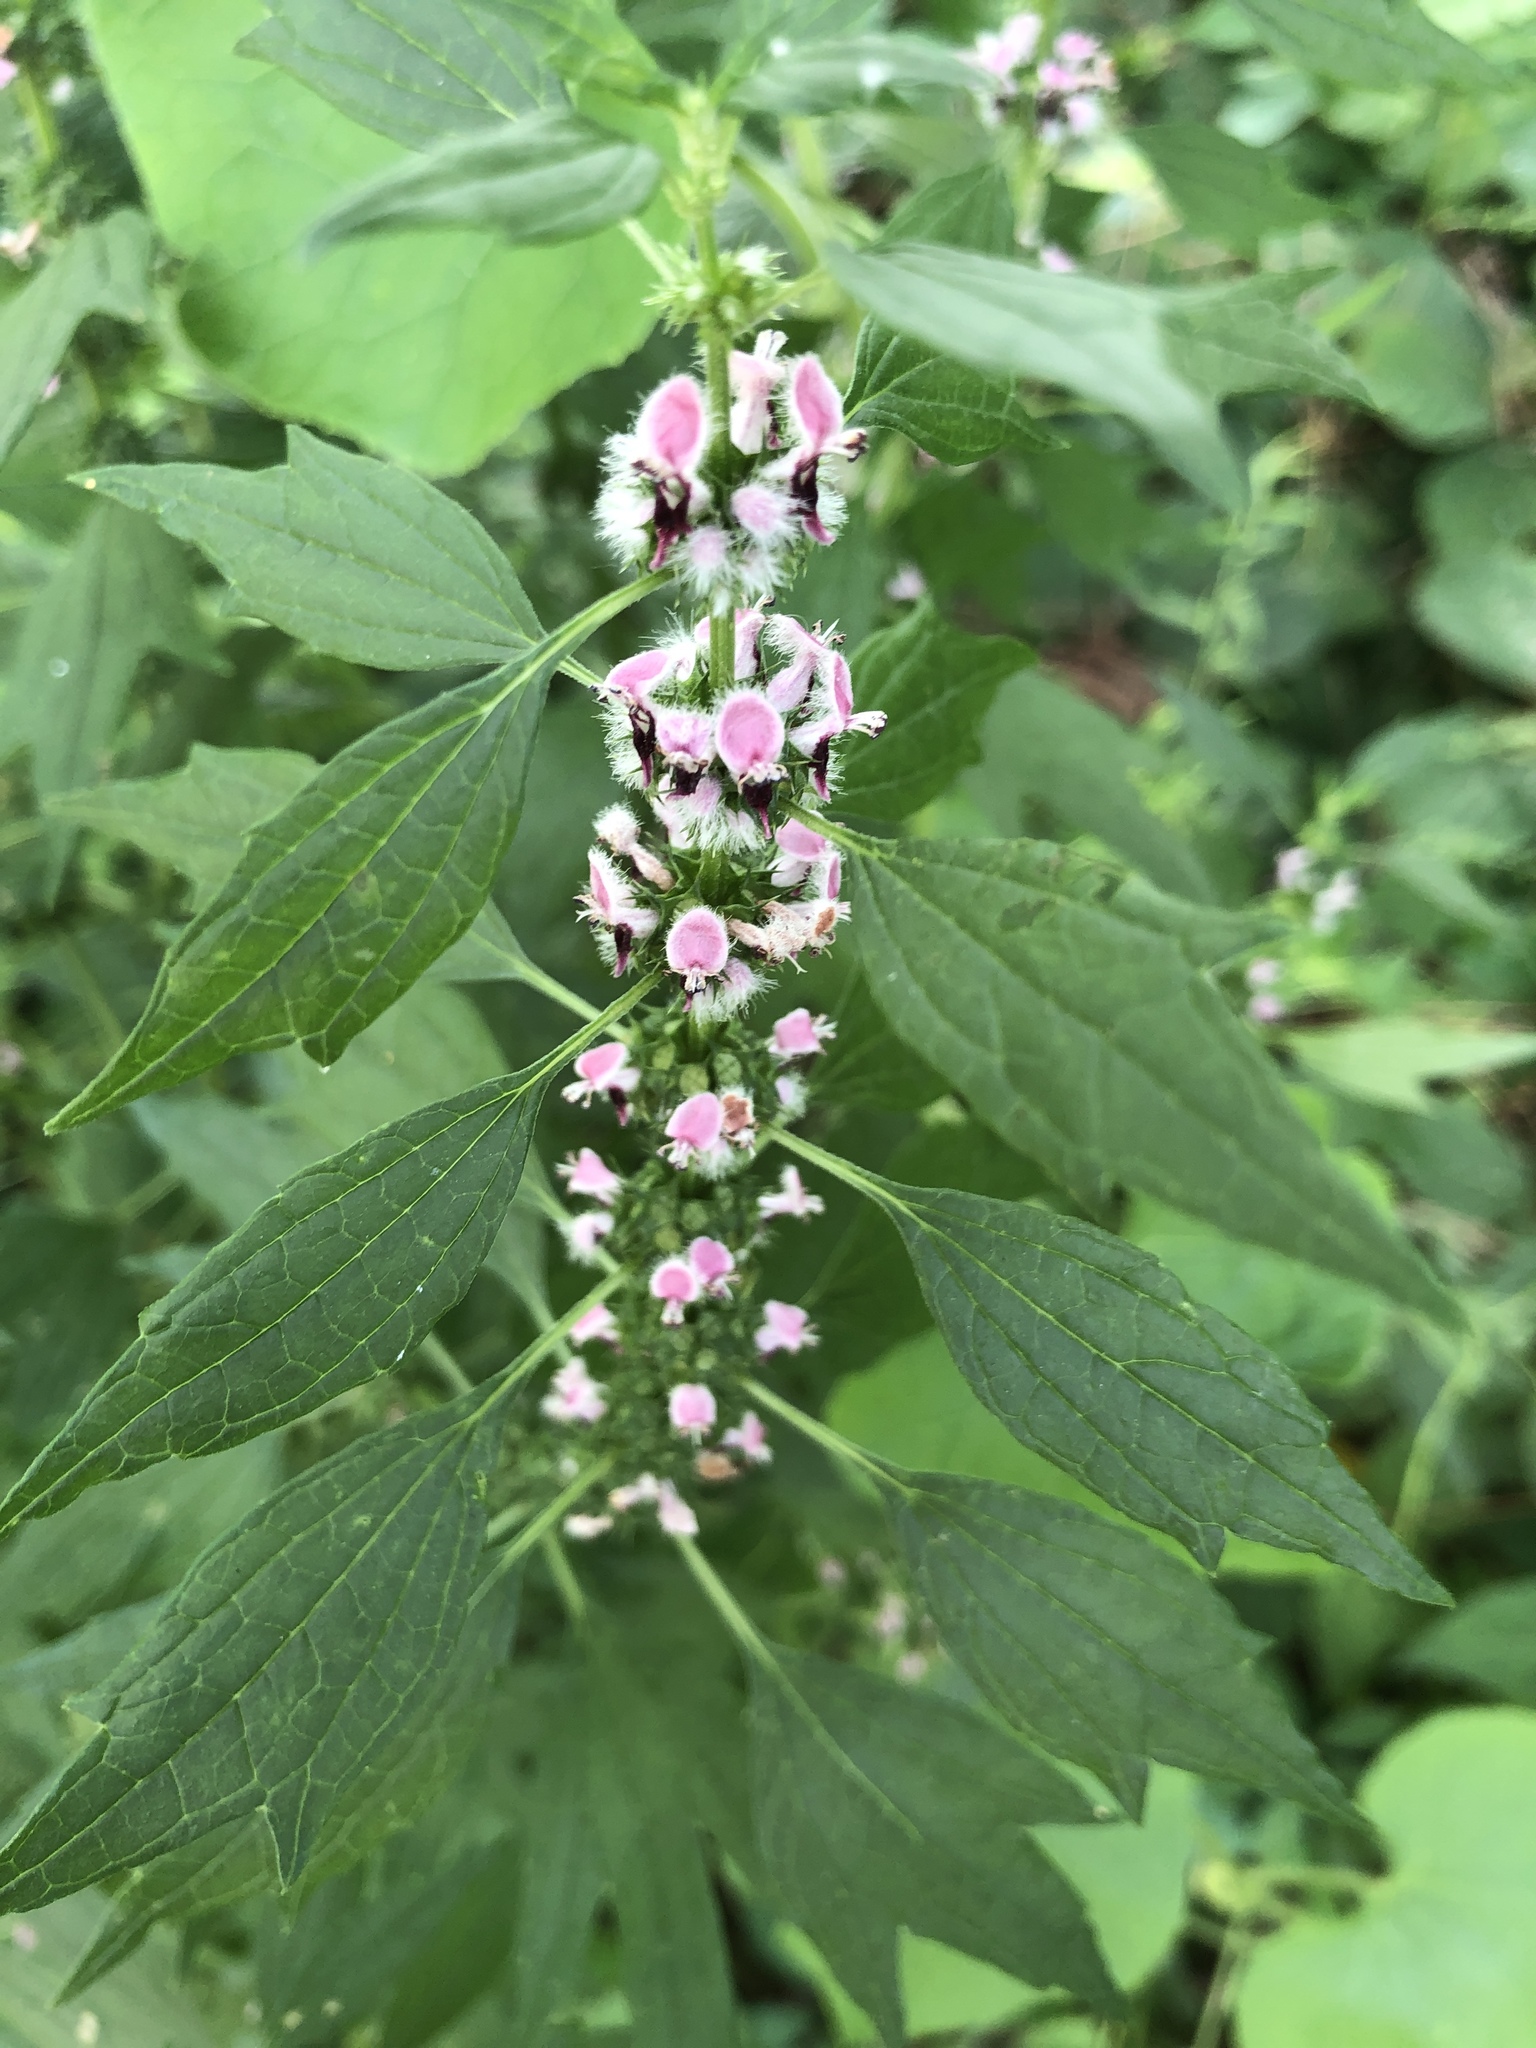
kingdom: Plantae
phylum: Tracheophyta
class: Magnoliopsida
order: Lamiales
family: Lamiaceae
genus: Leonurus
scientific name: Leonurus cardiaca
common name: Motherwort
